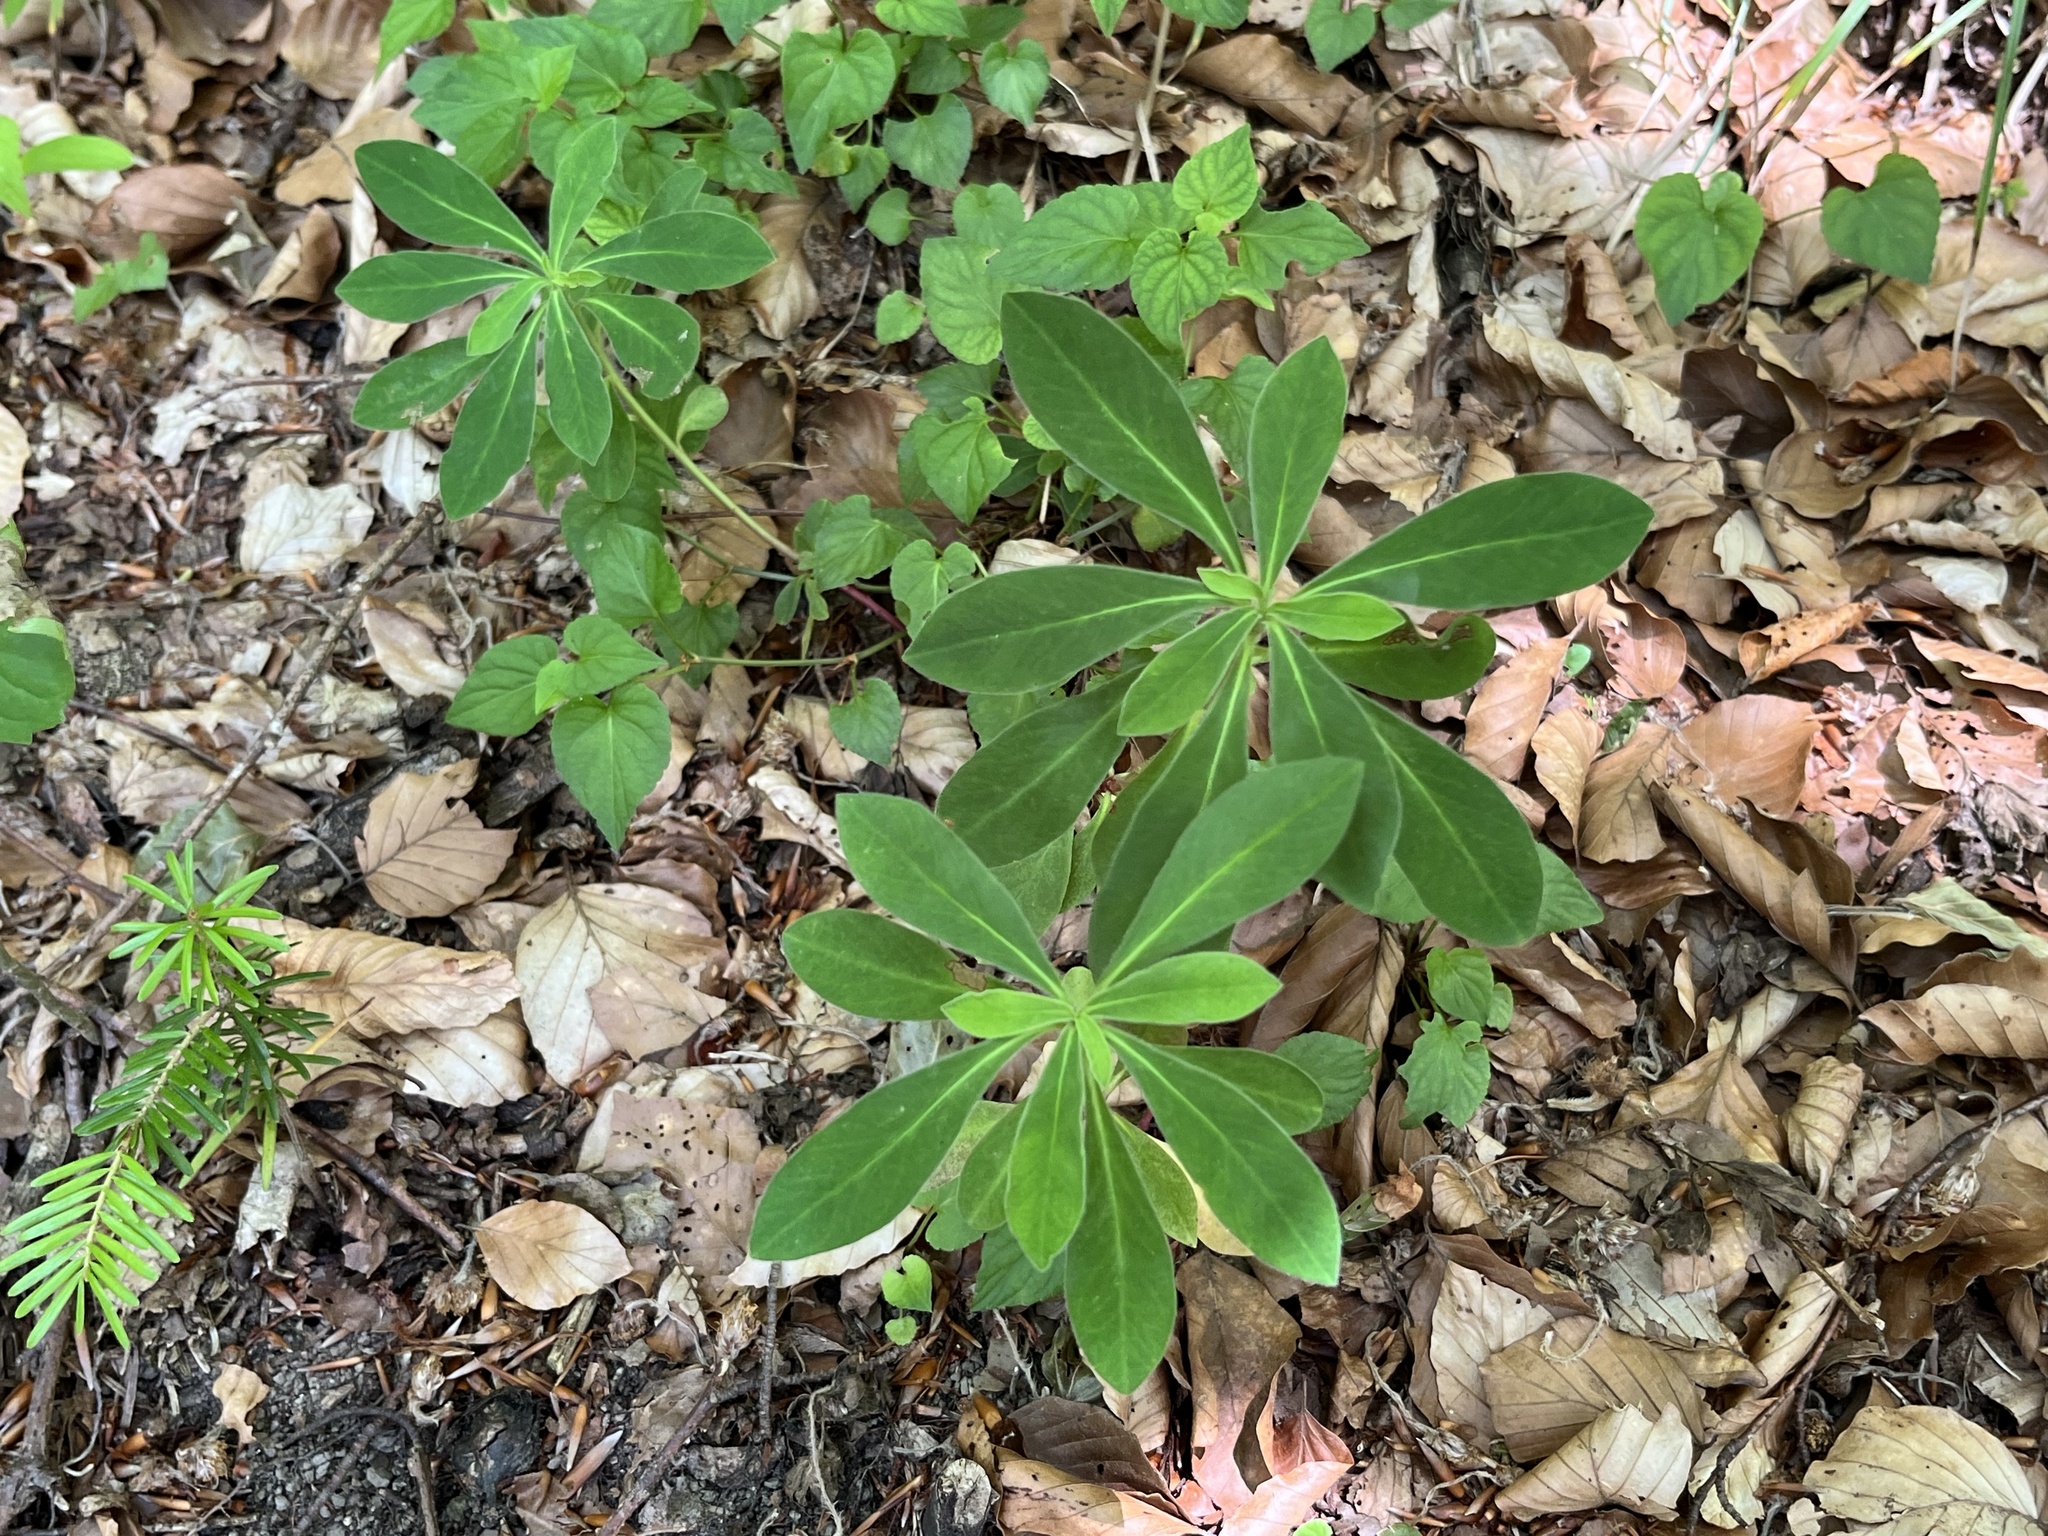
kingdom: Plantae
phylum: Tracheophyta
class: Magnoliopsida
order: Malpighiales
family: Euphorbiaceae
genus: Euphorbia
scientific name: Euphorbia amygdaloides
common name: Wood spurge
